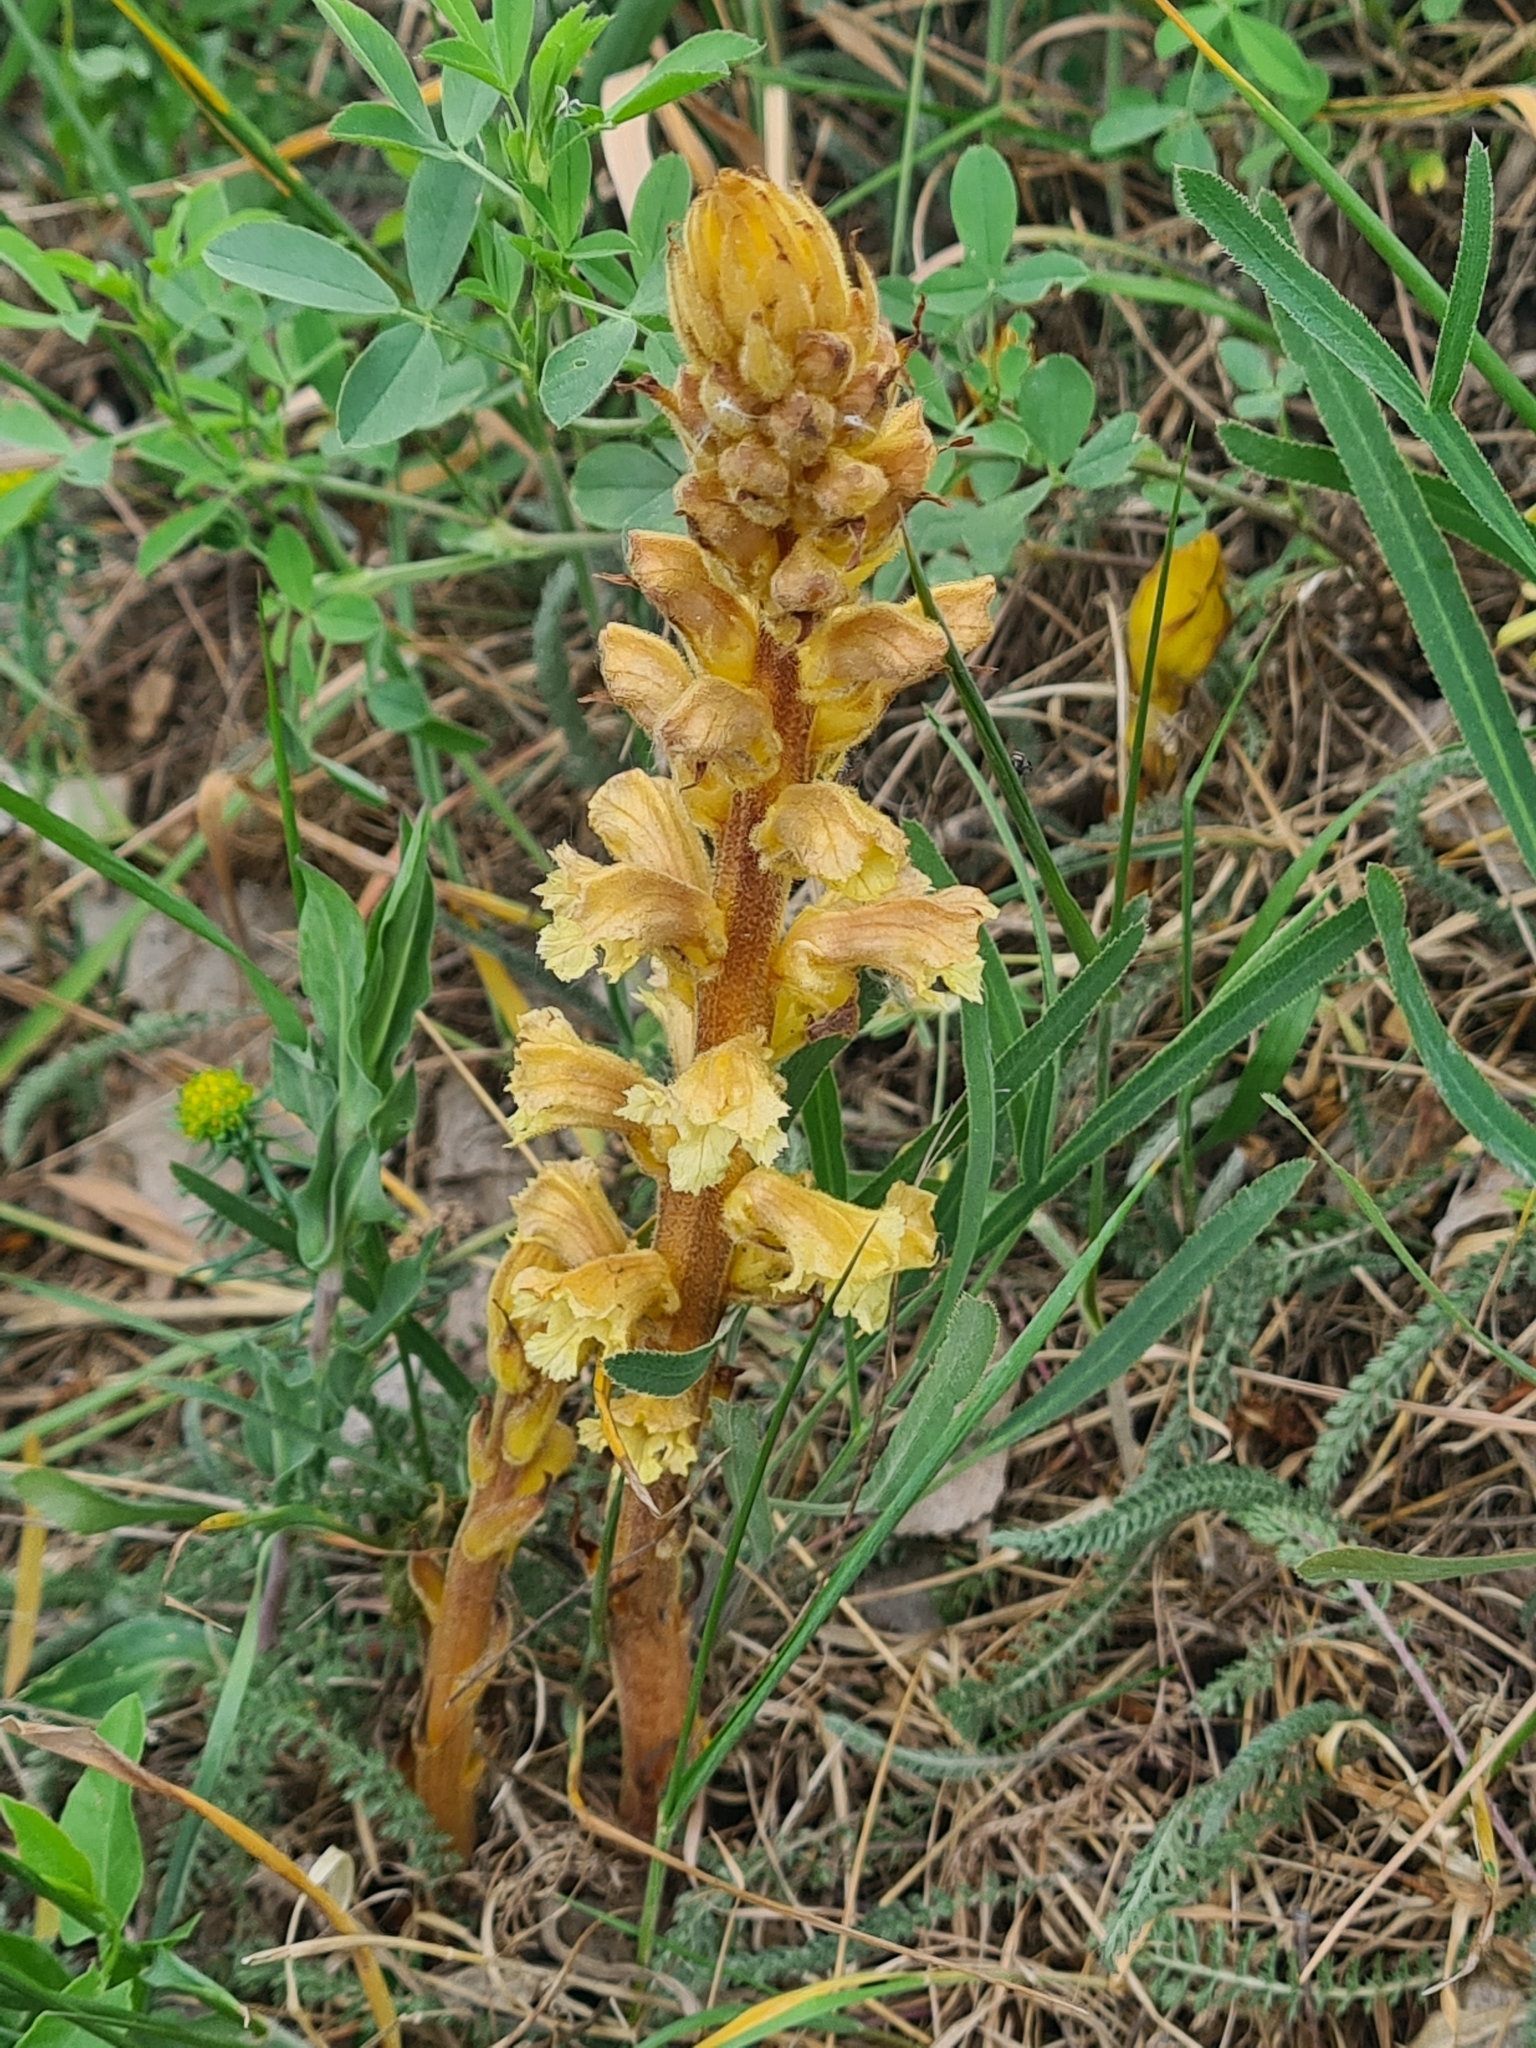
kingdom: Plantae
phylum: Tracheophyta
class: Magnoliopsida
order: Lamiales
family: Orobanchaceae
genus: Orobanche
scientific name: Orobanche lutea
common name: Yellow broomrape
